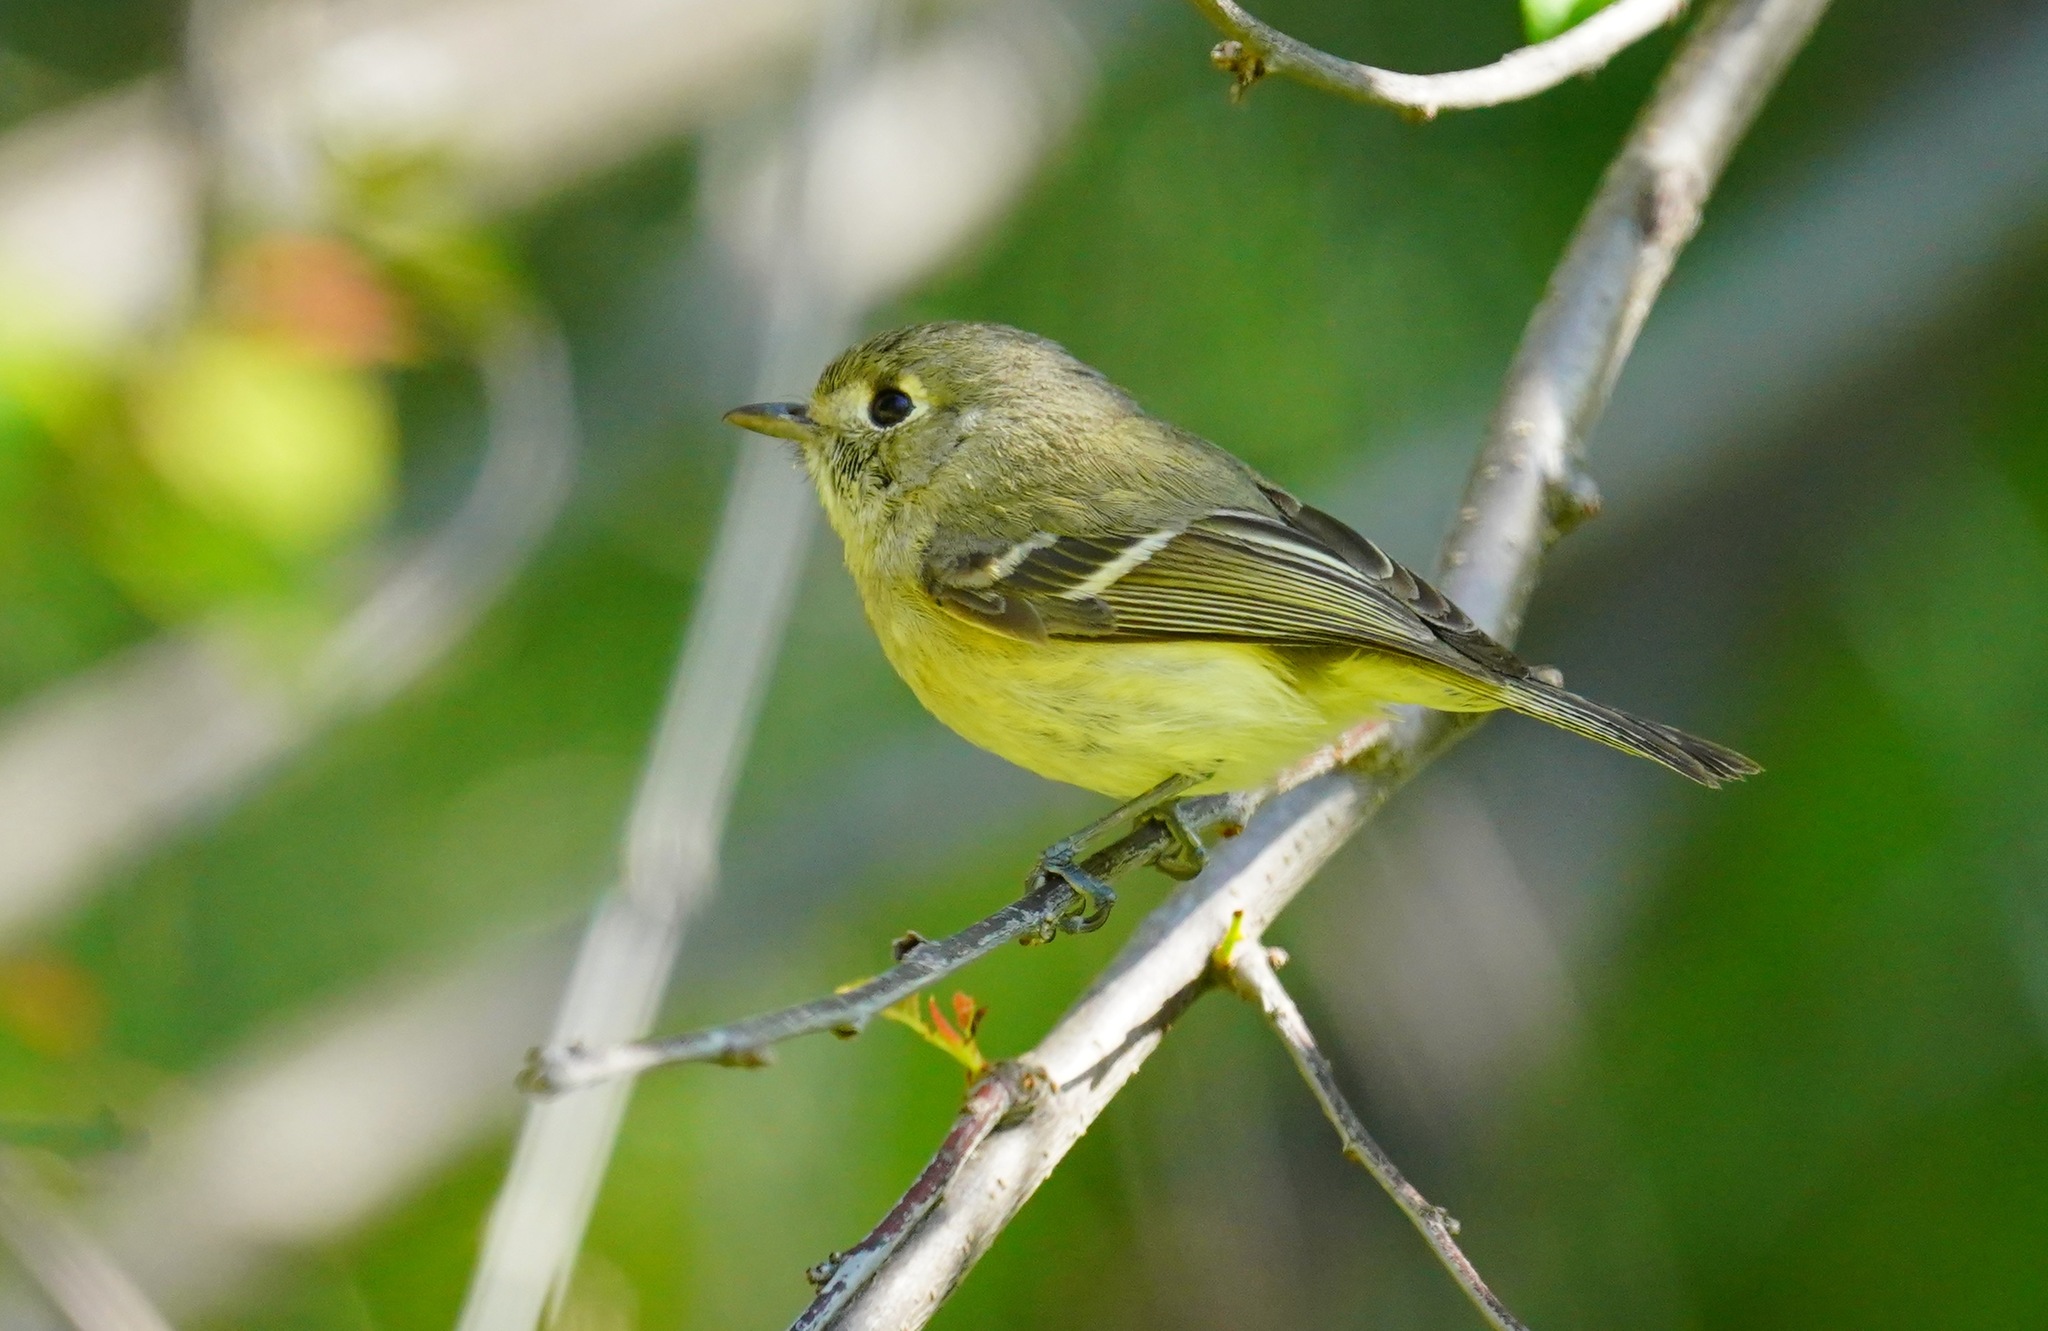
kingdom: Animalia
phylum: Chordata
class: Aves
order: Passeriformes
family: Vireonidae
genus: Vireo
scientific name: Vireo huttoni
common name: Hutton's vireo
